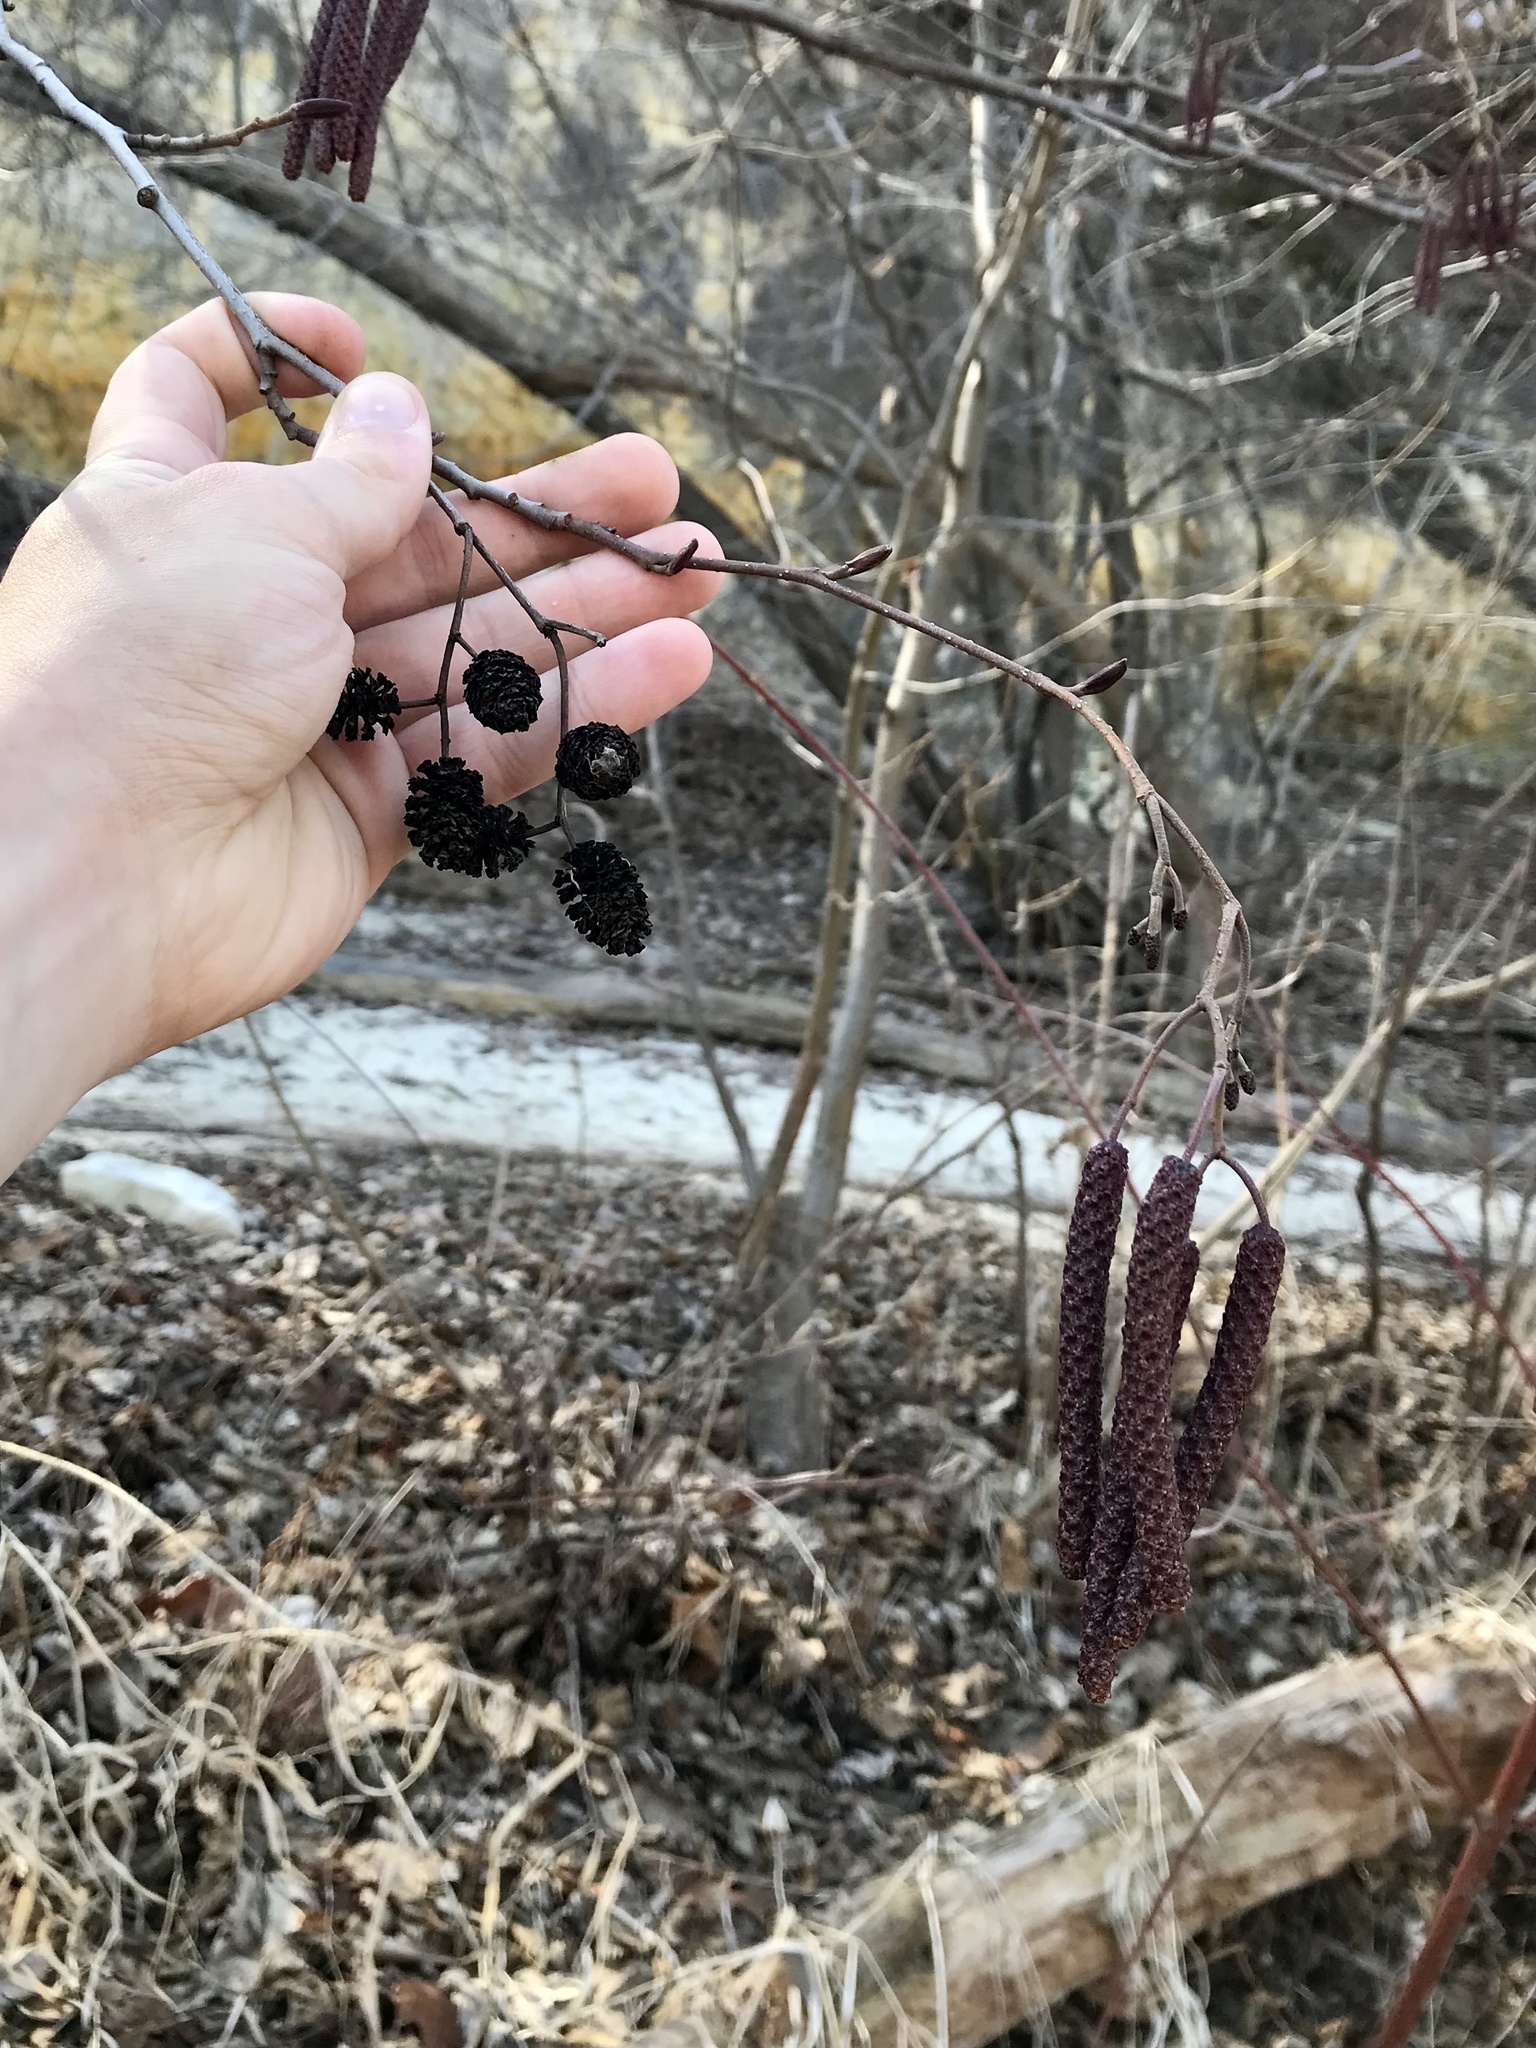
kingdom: Plantae
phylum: Tracheophyta
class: Magnoliopsida
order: Fagales
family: Betulaceae
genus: Alnus
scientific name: Alnus glutinosa
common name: Black alder
